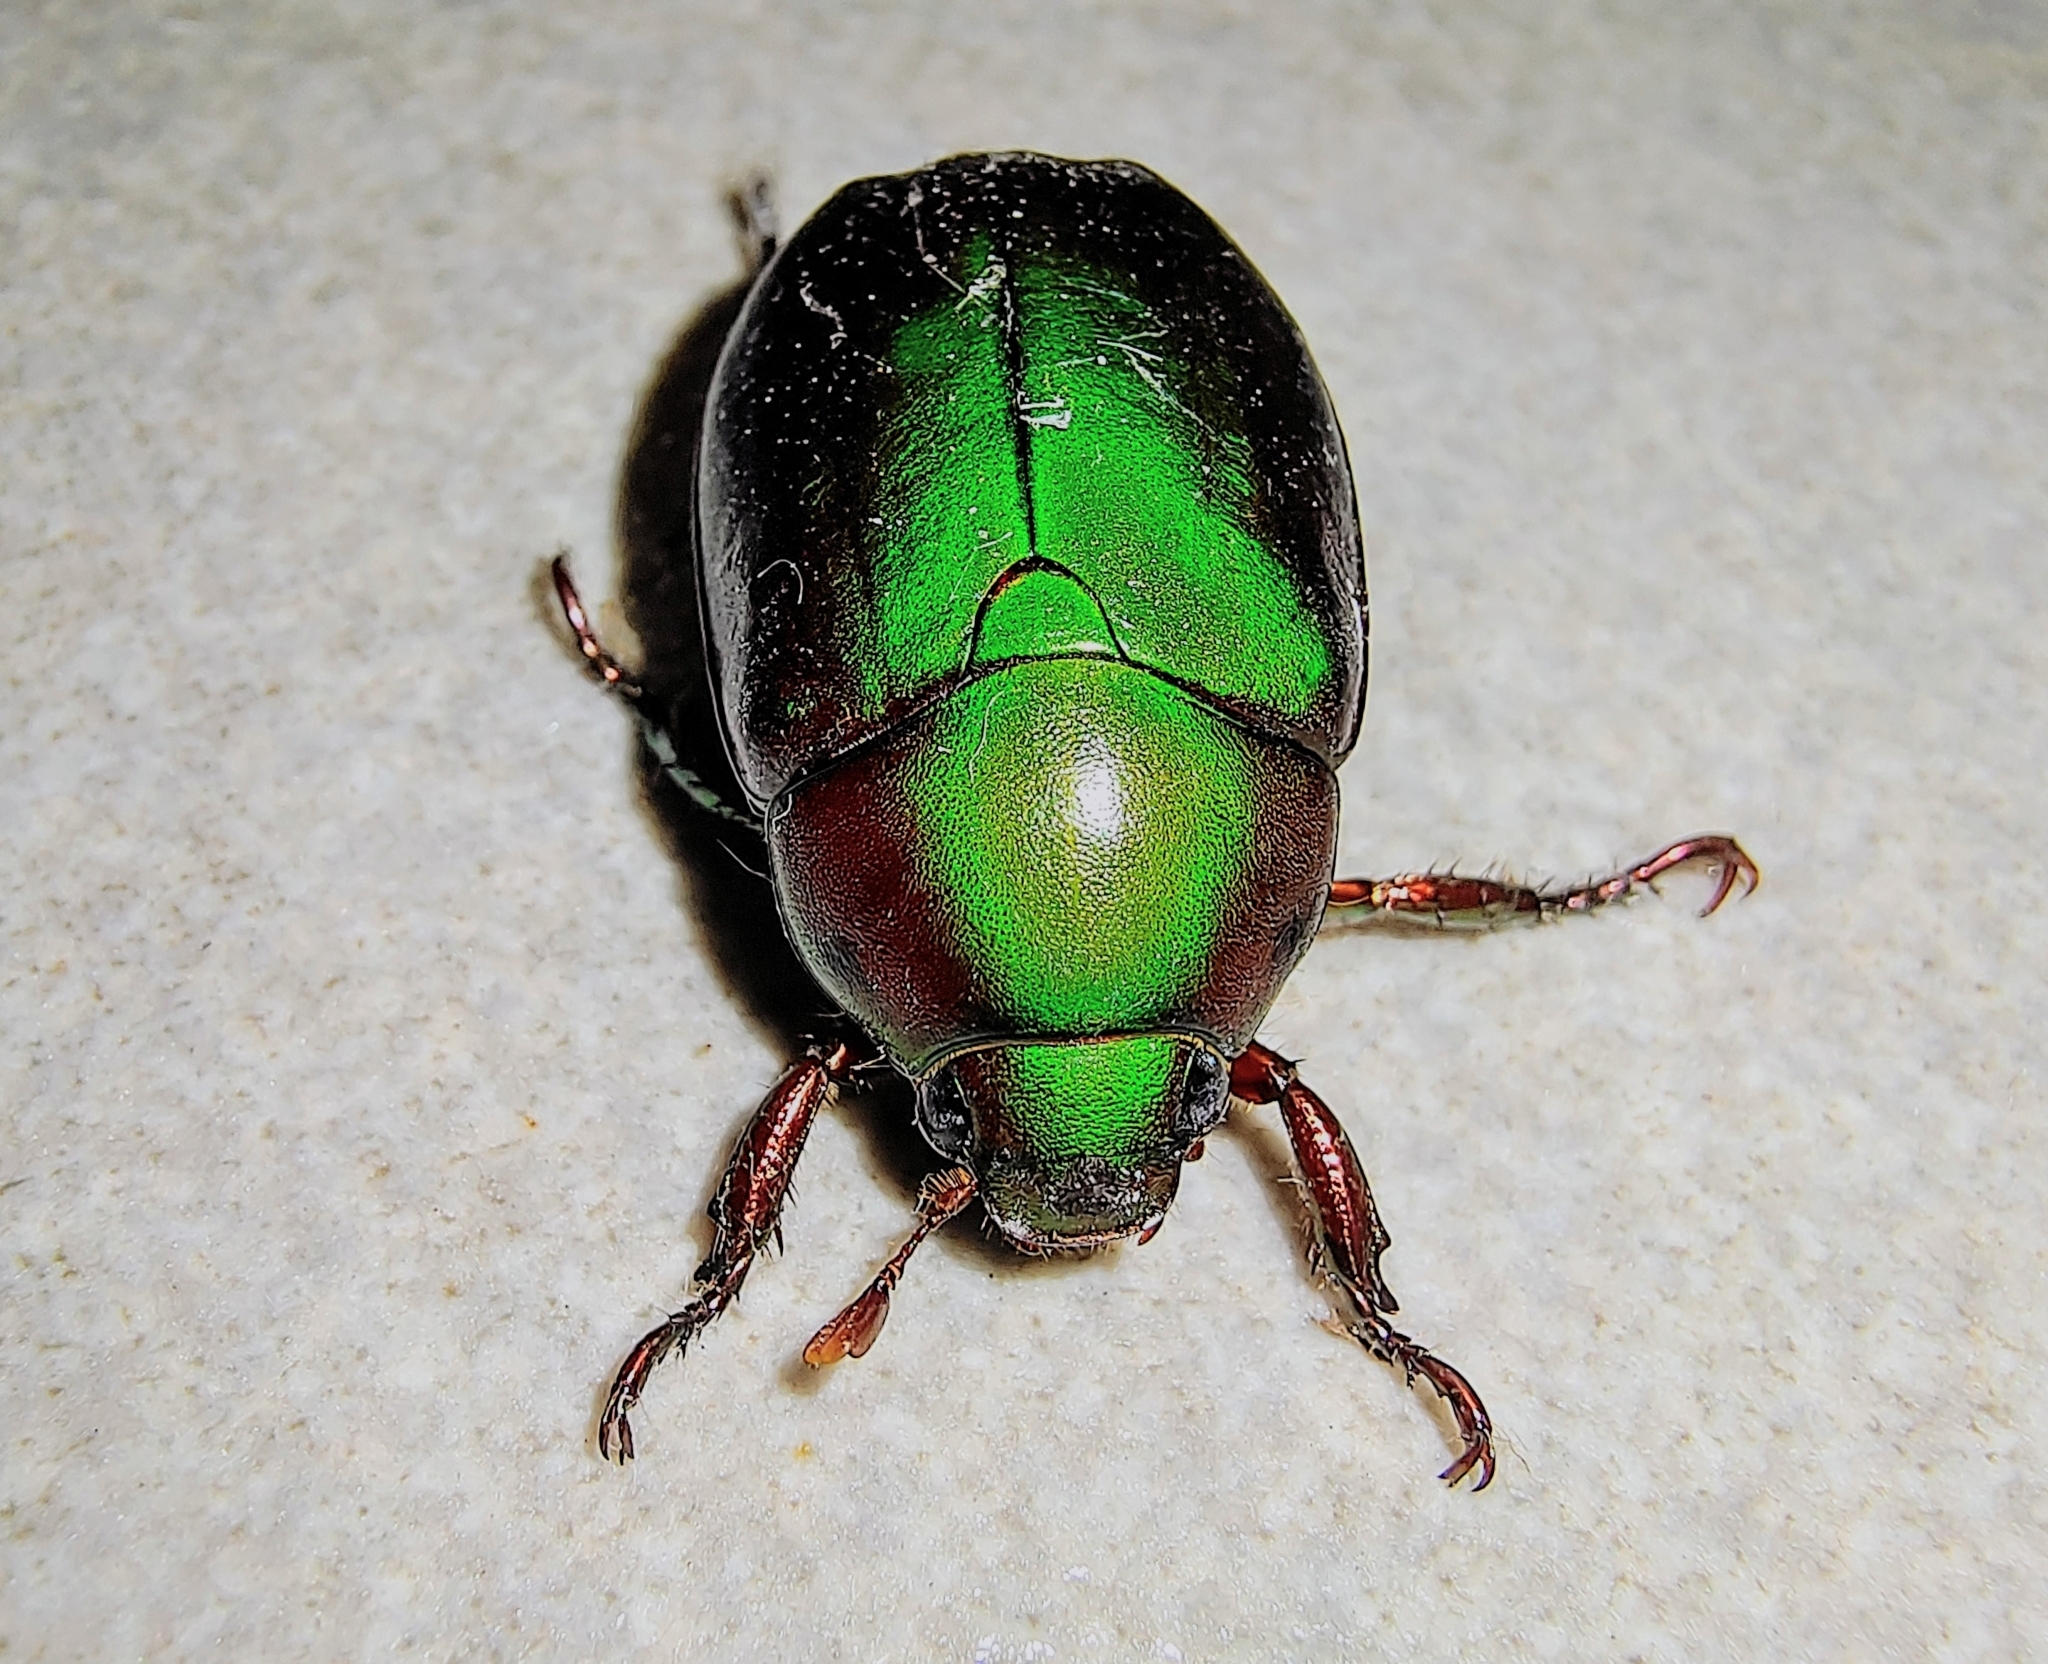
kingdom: Animalia
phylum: Arthropoda
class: Insecta
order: Coleoptera
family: Scarabaeidae
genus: Anomala
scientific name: Anomala cupripes
